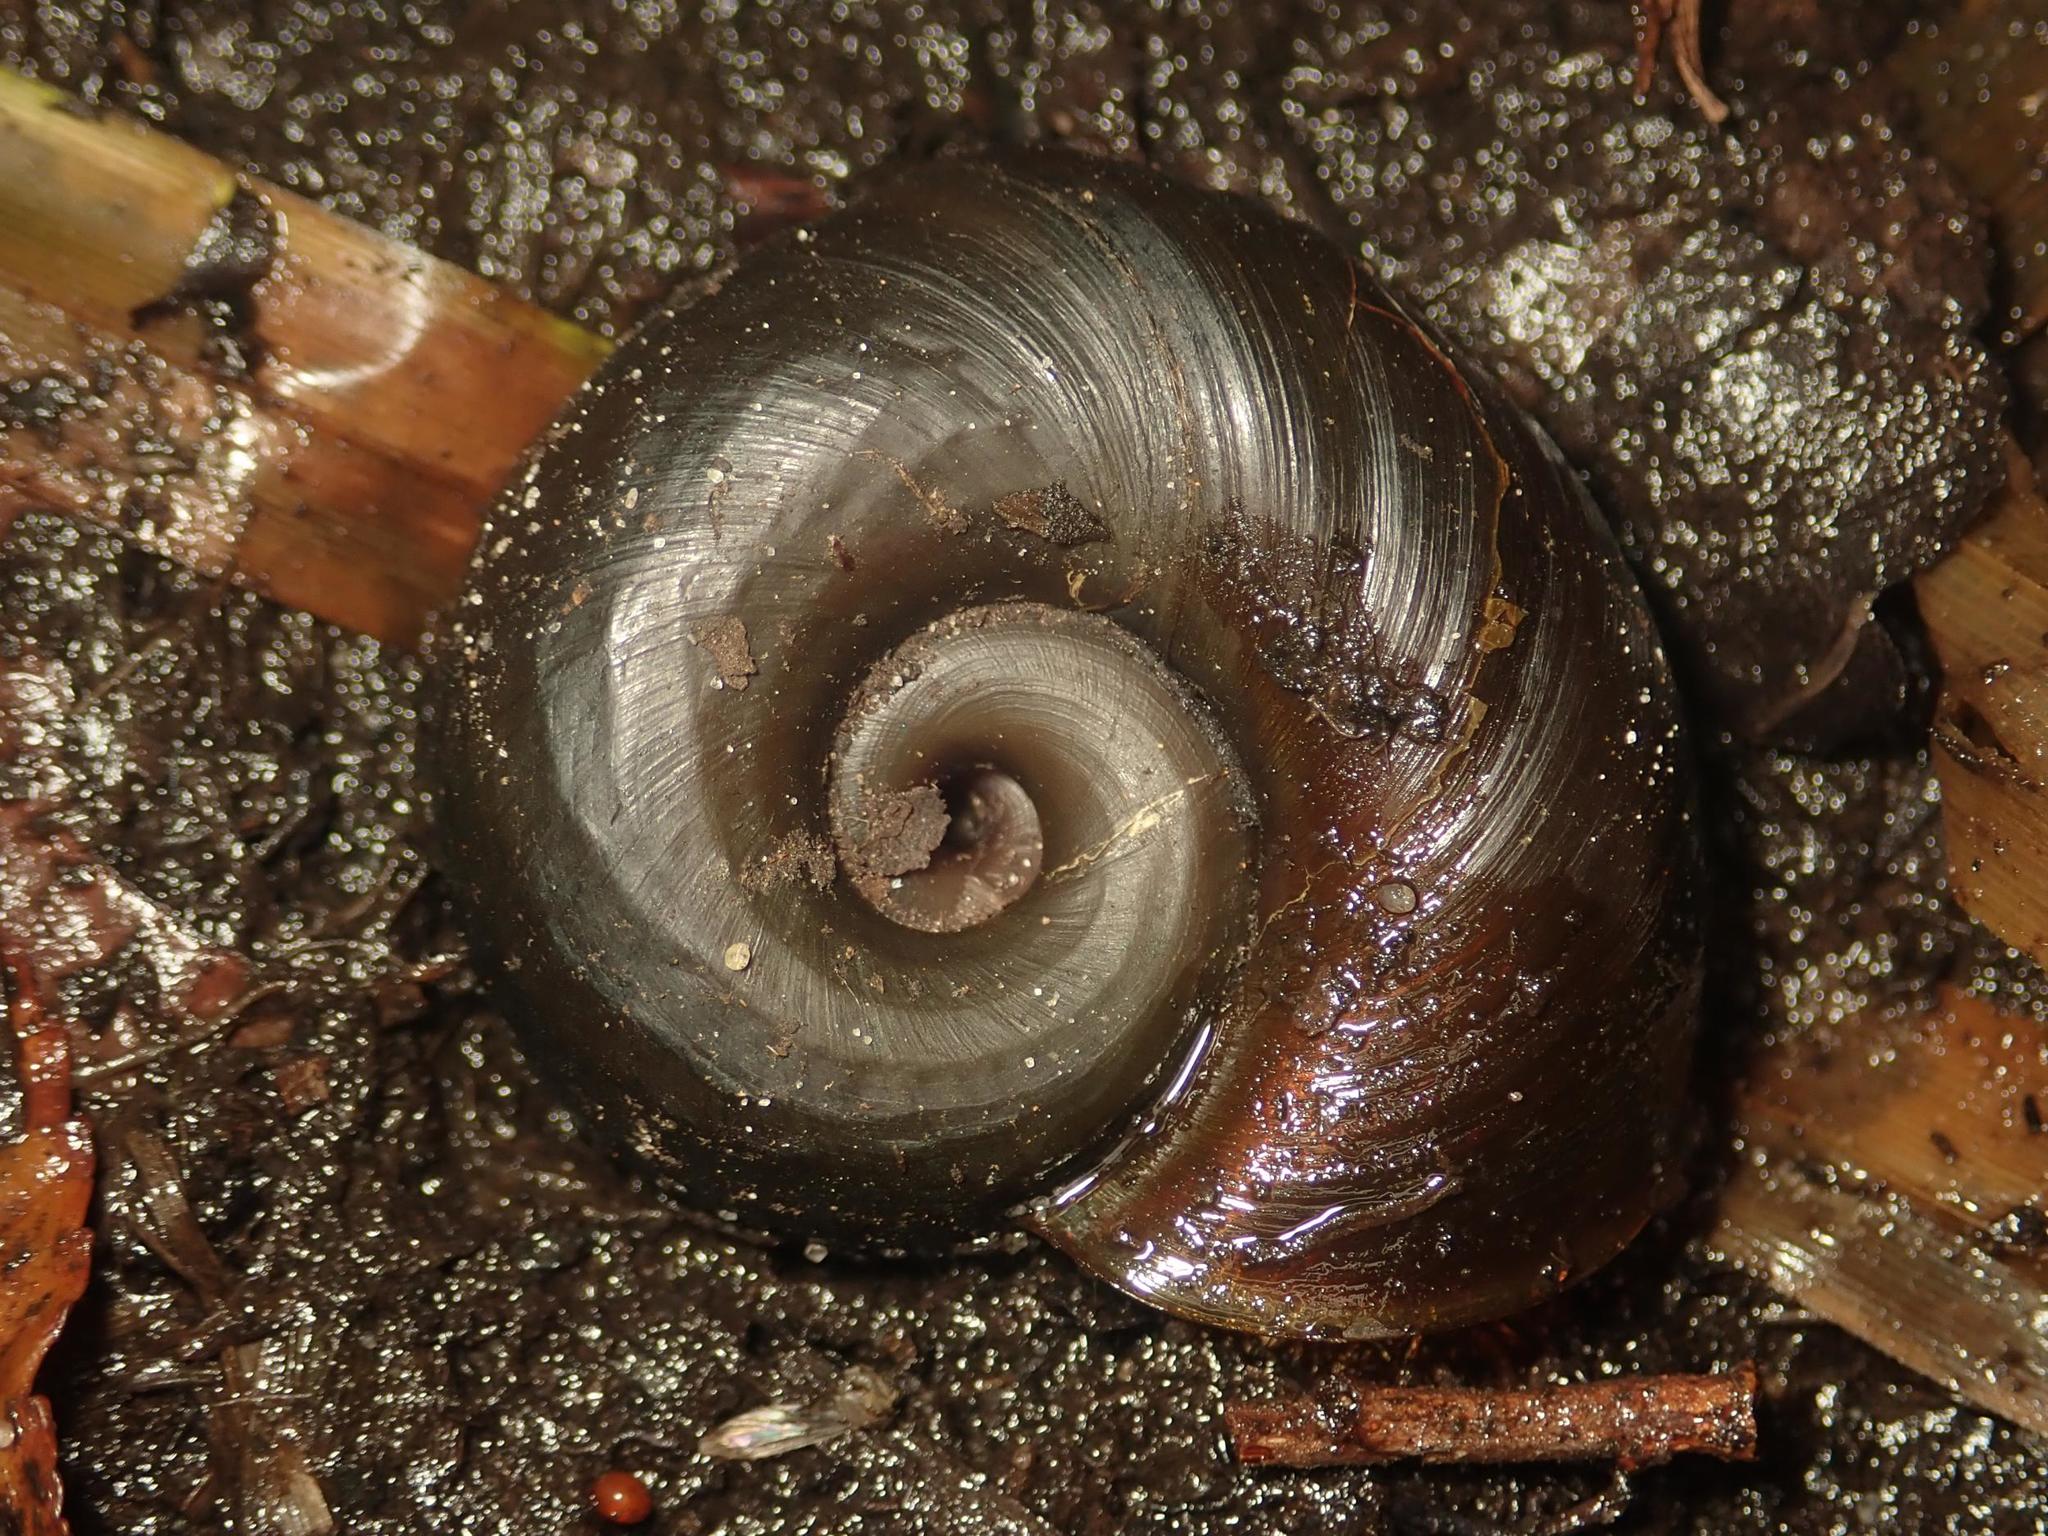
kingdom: Animalia
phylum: Mollusca
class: Gastropoda
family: Planorbidae
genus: Planorbarius
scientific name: Planorbarius corneus
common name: Great ramshorn
